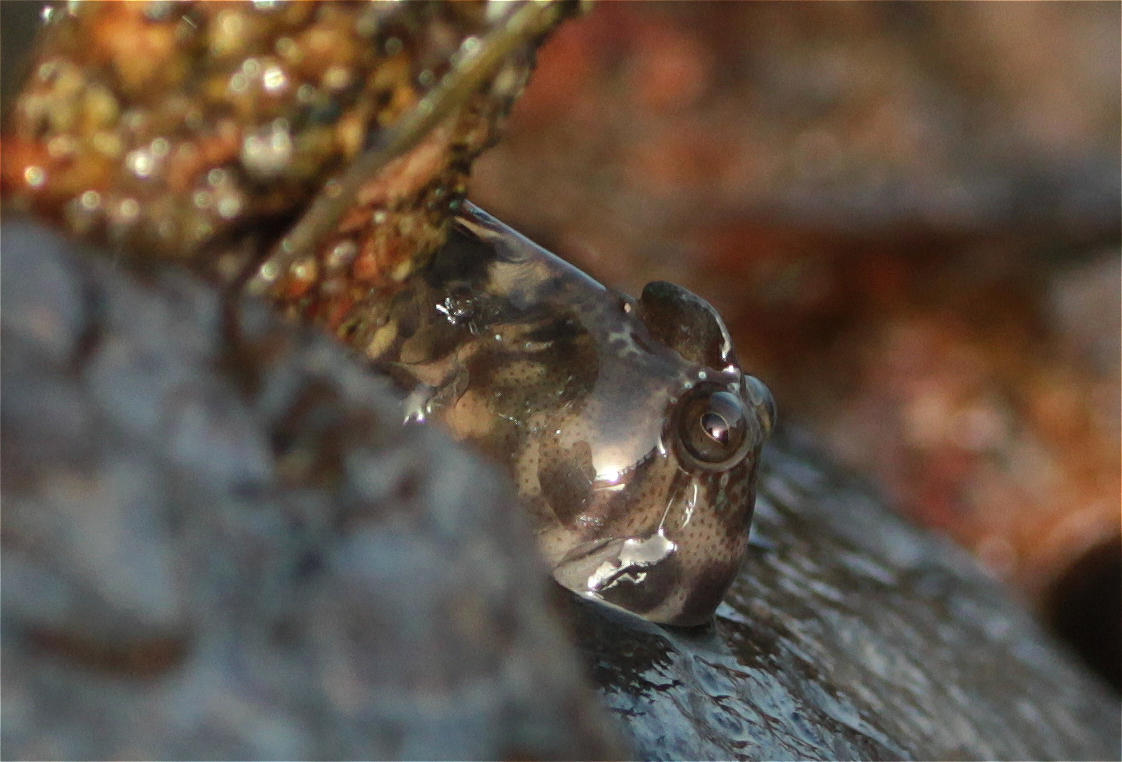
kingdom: Animalia
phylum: Chordata
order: Perciformes
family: Blenniidae
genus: Alticus
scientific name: Alticus magnusi
